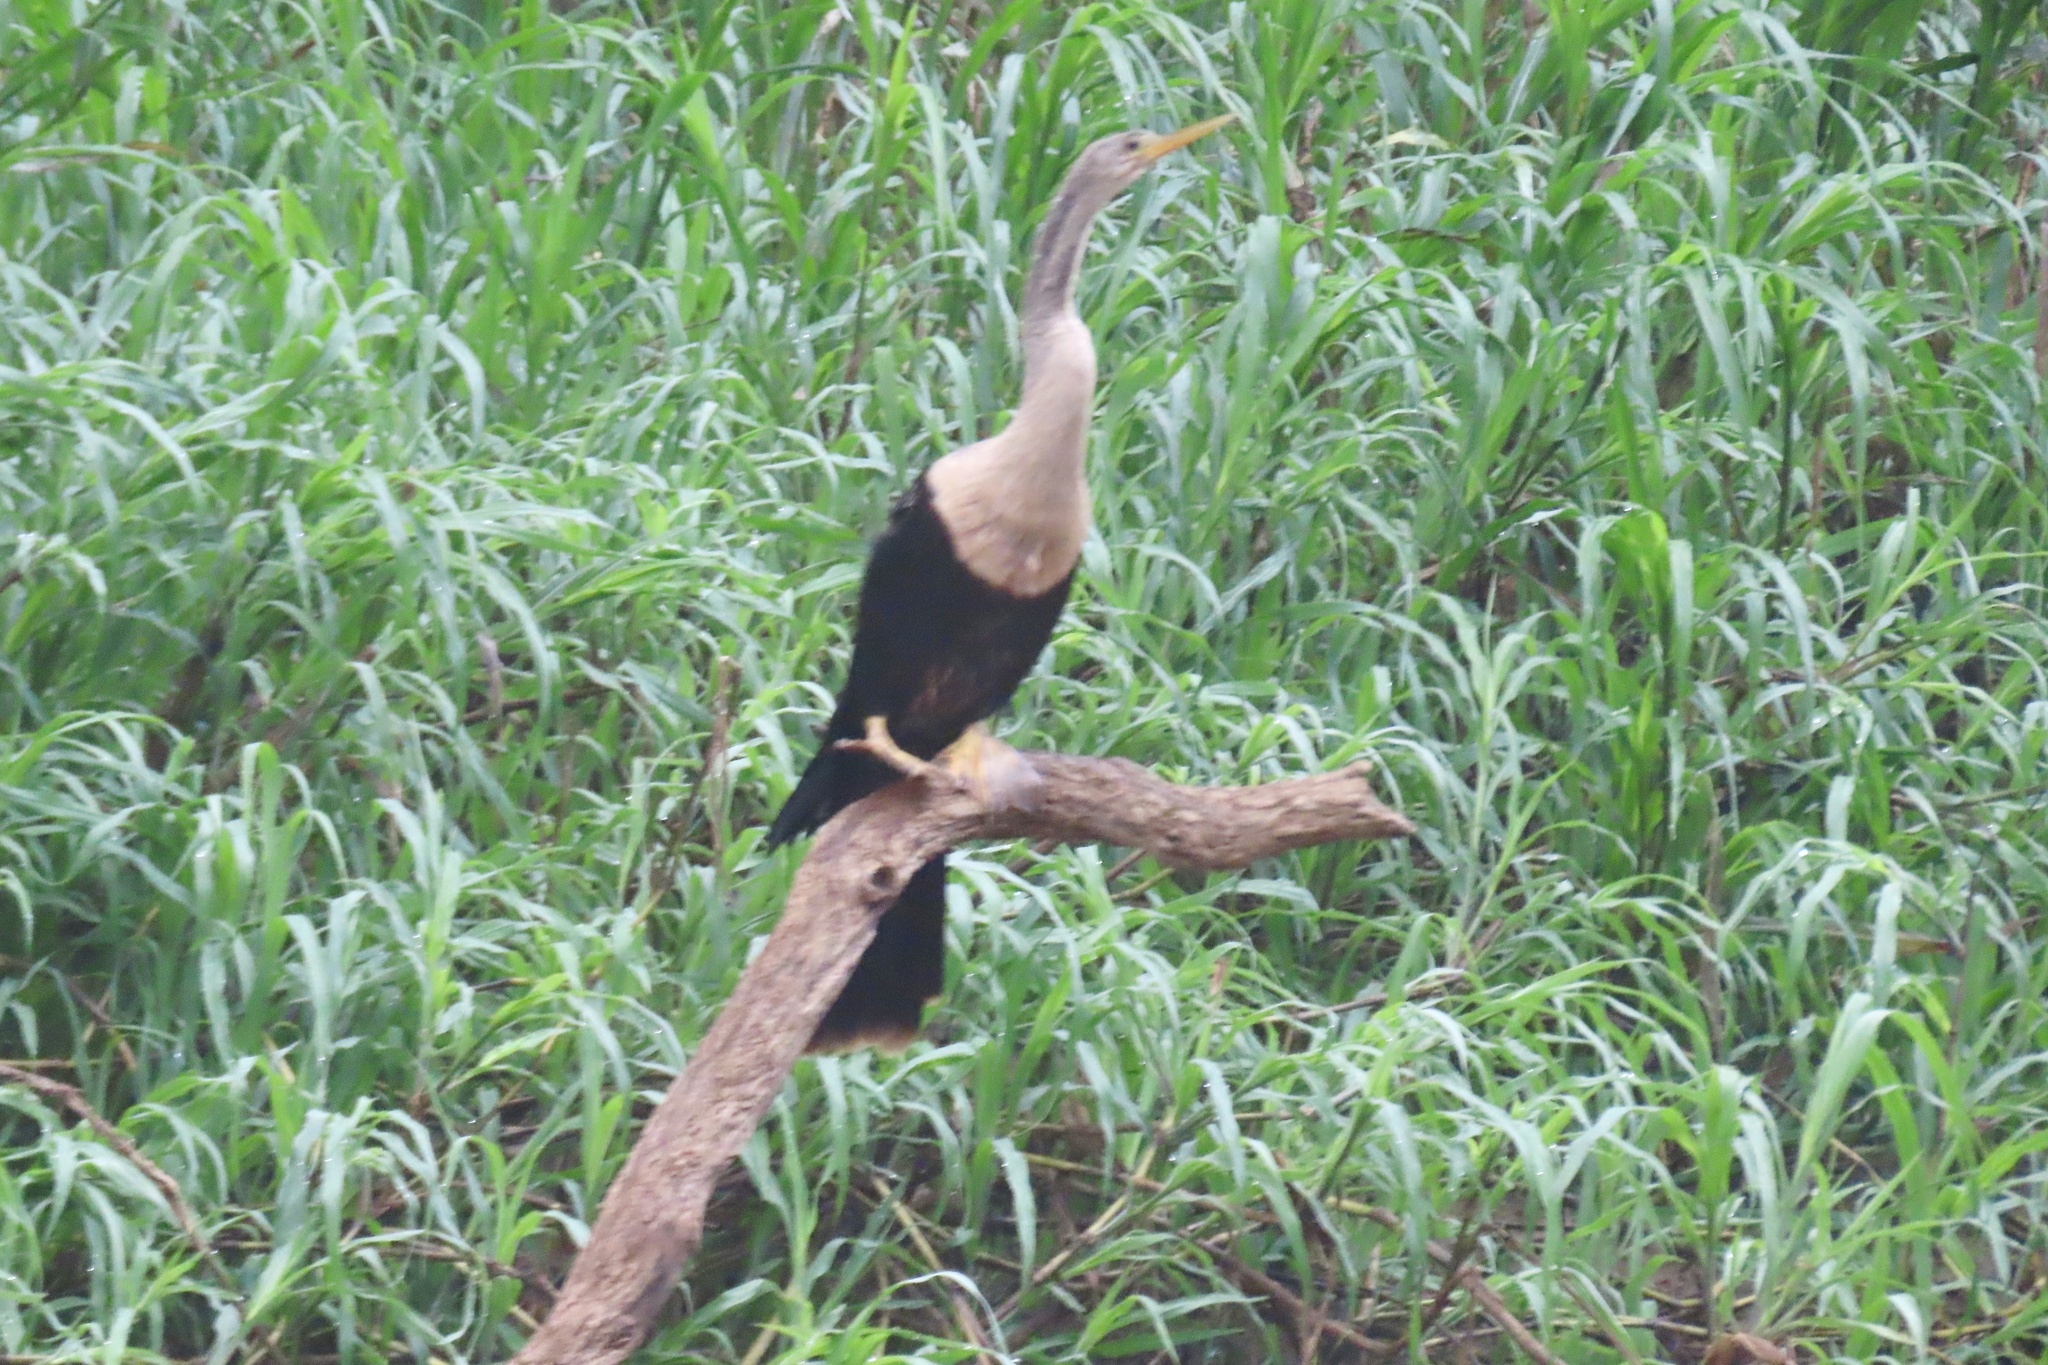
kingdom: Animalia
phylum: Chordata
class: Aves
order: Suliformes
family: Anhingidae
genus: Anhinga
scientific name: Anhinga anhinga
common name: Anhinga
